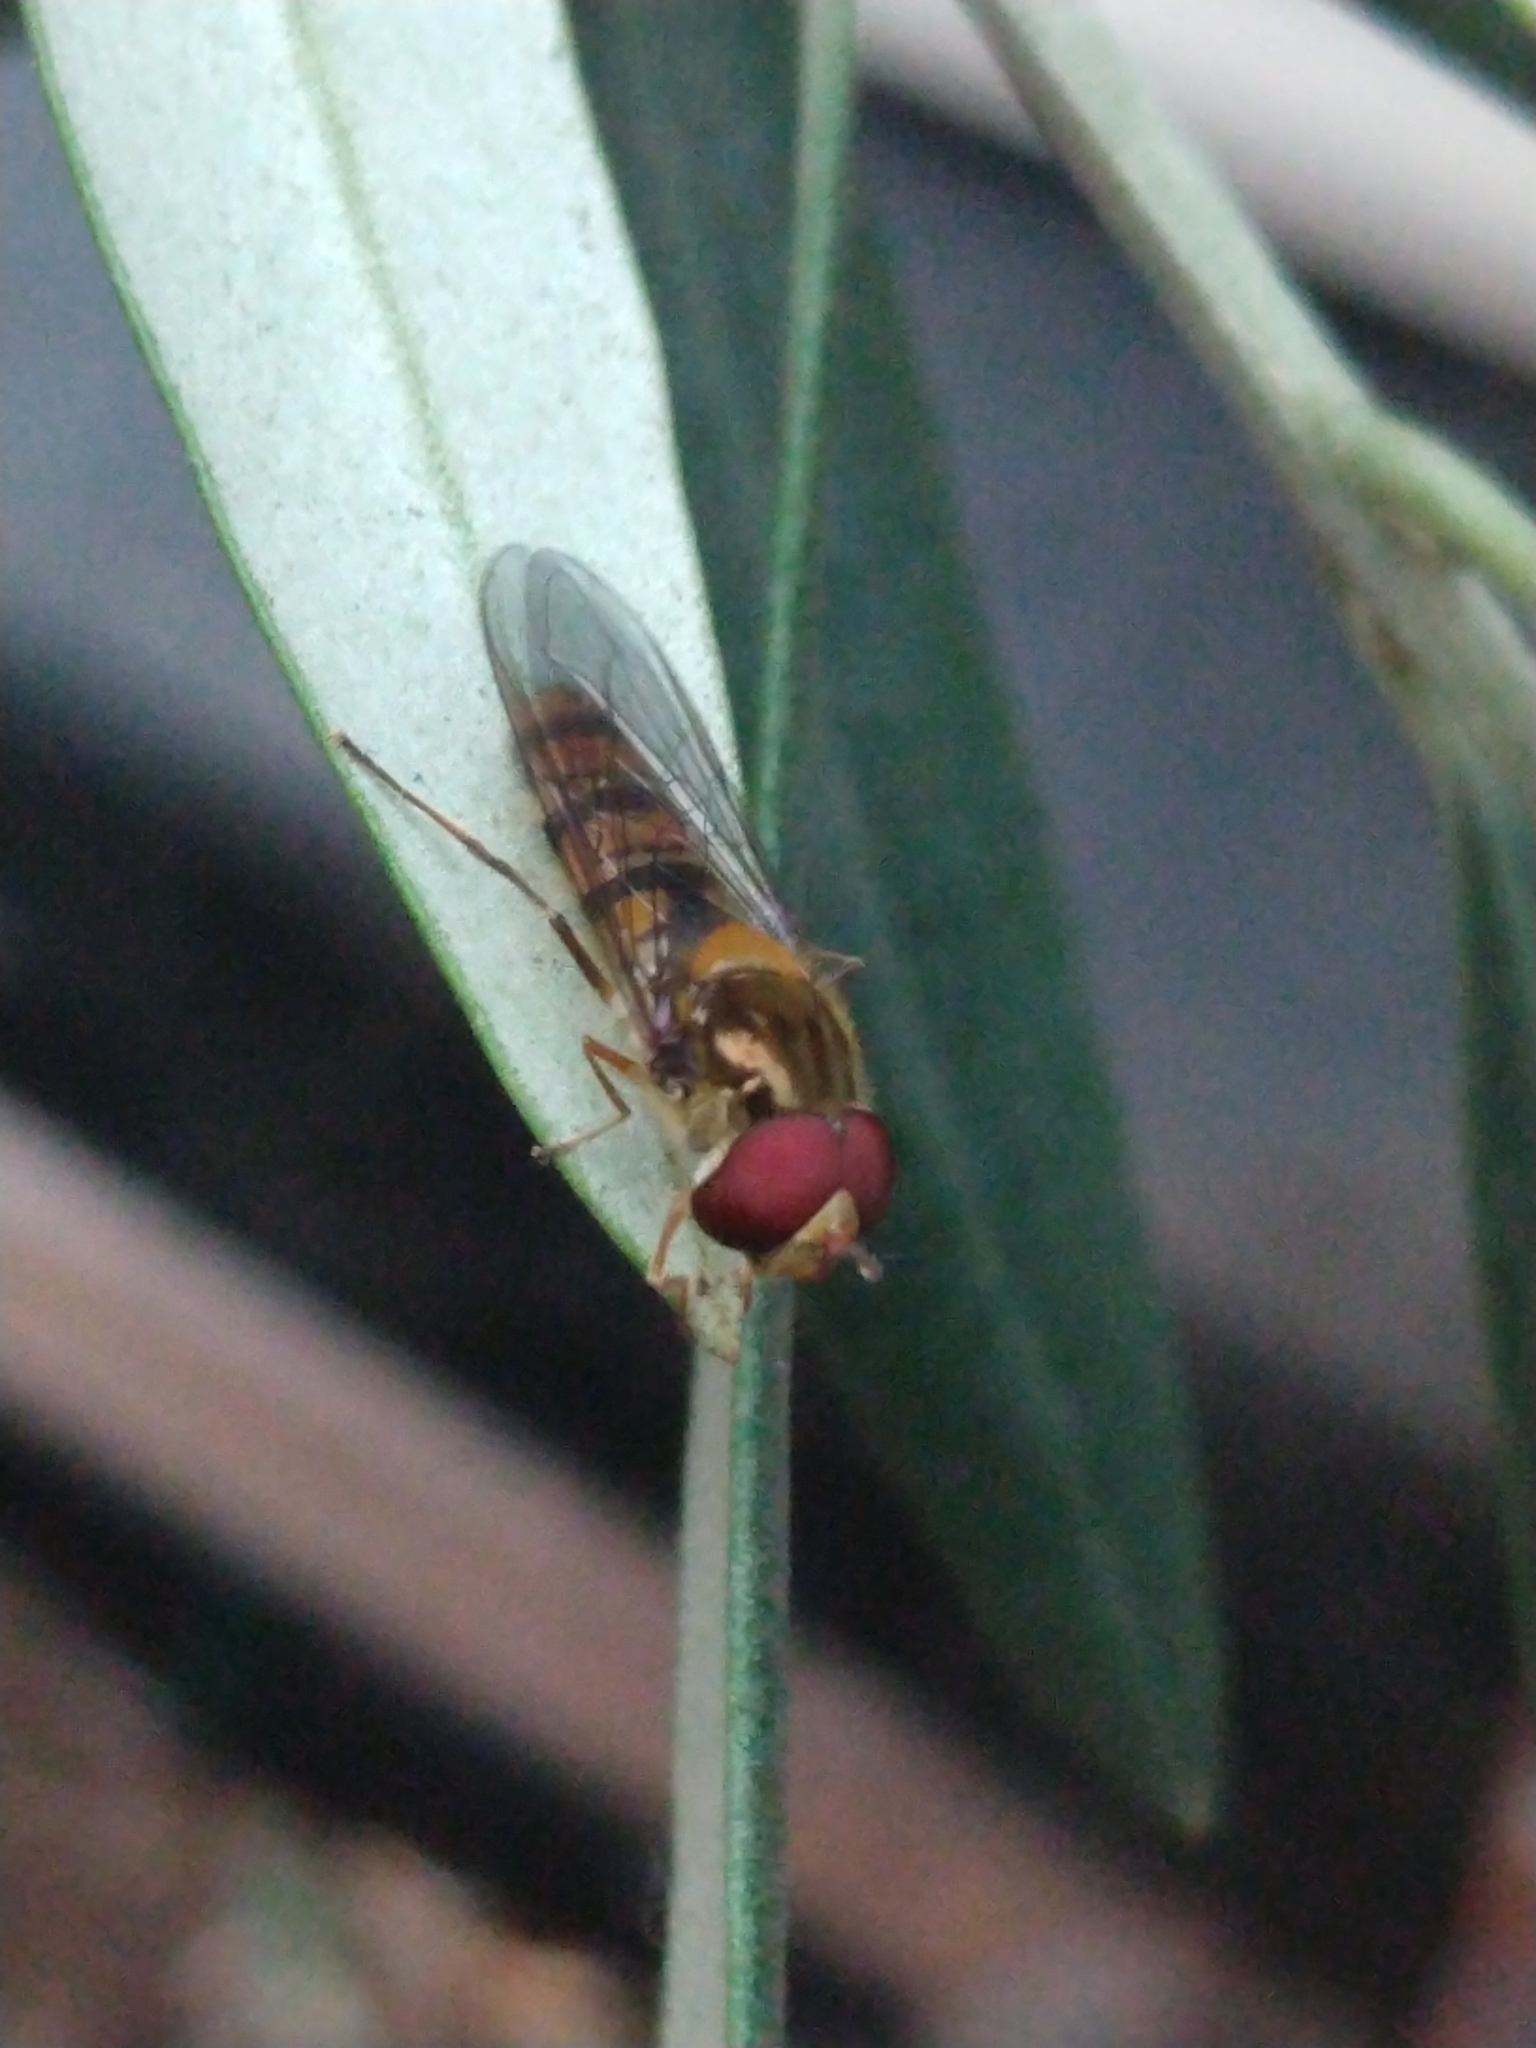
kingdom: Animalia
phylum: Arthropoda
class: Insecta
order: Diptera
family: Syrphidae
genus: Episyrphus
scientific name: Episyrphus balteatus
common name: Marmalade hoverfly
